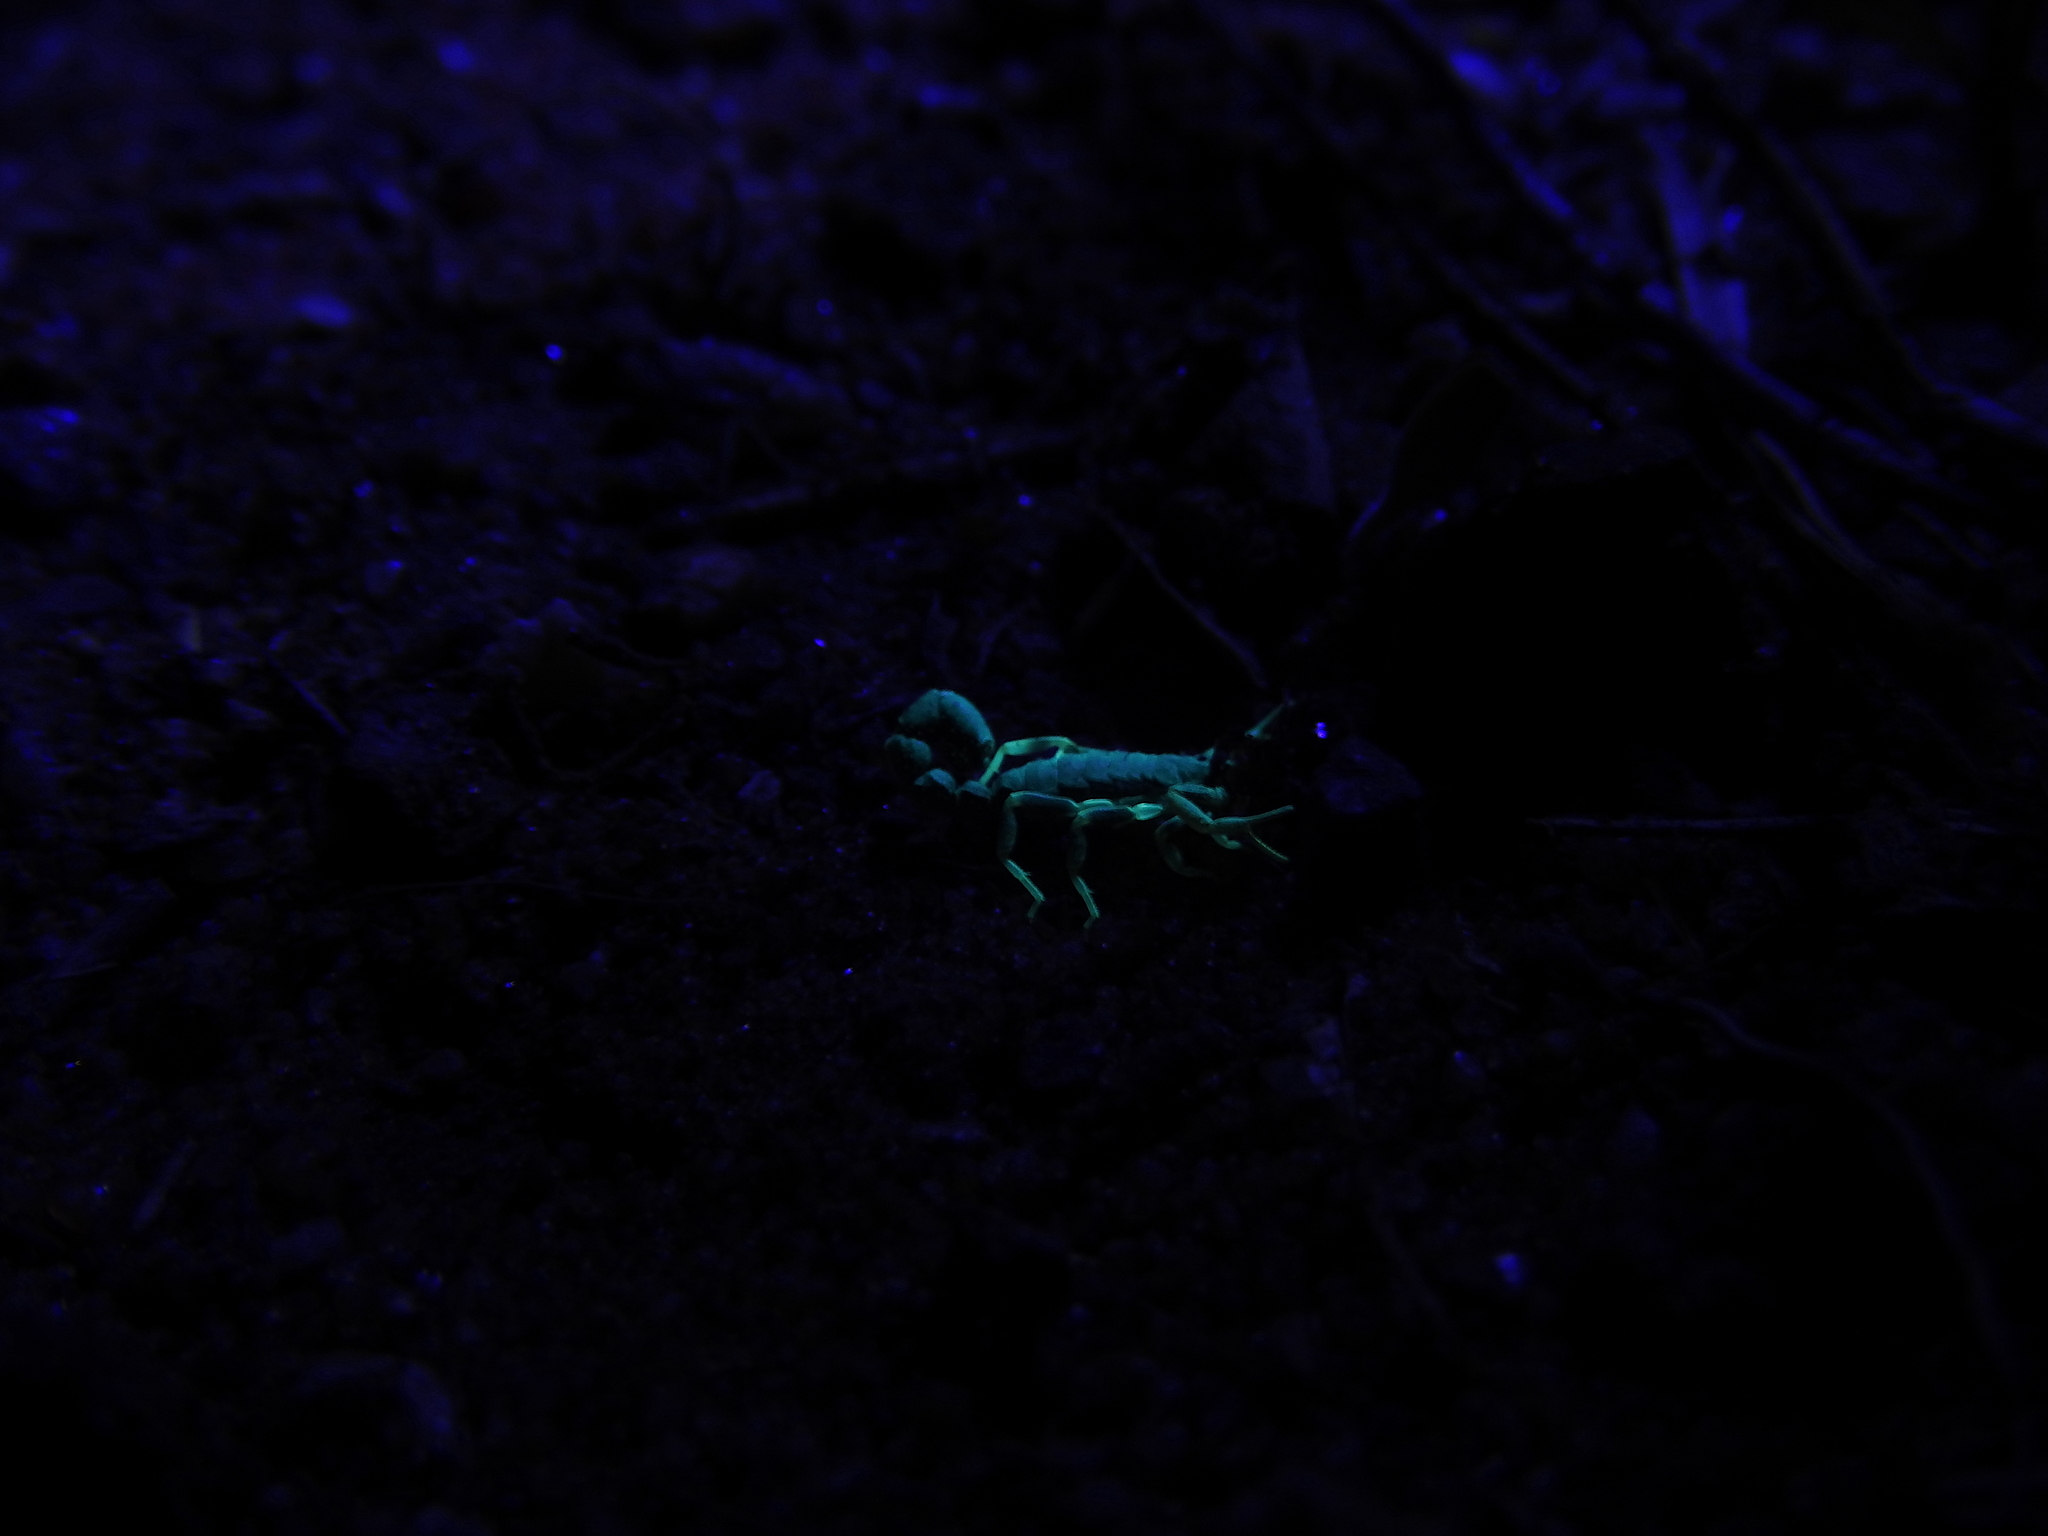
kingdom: Animalia
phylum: Arthropoda
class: Arachnida
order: Scorpiones
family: Buthidae
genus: Charmus
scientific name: Charmus indicus
